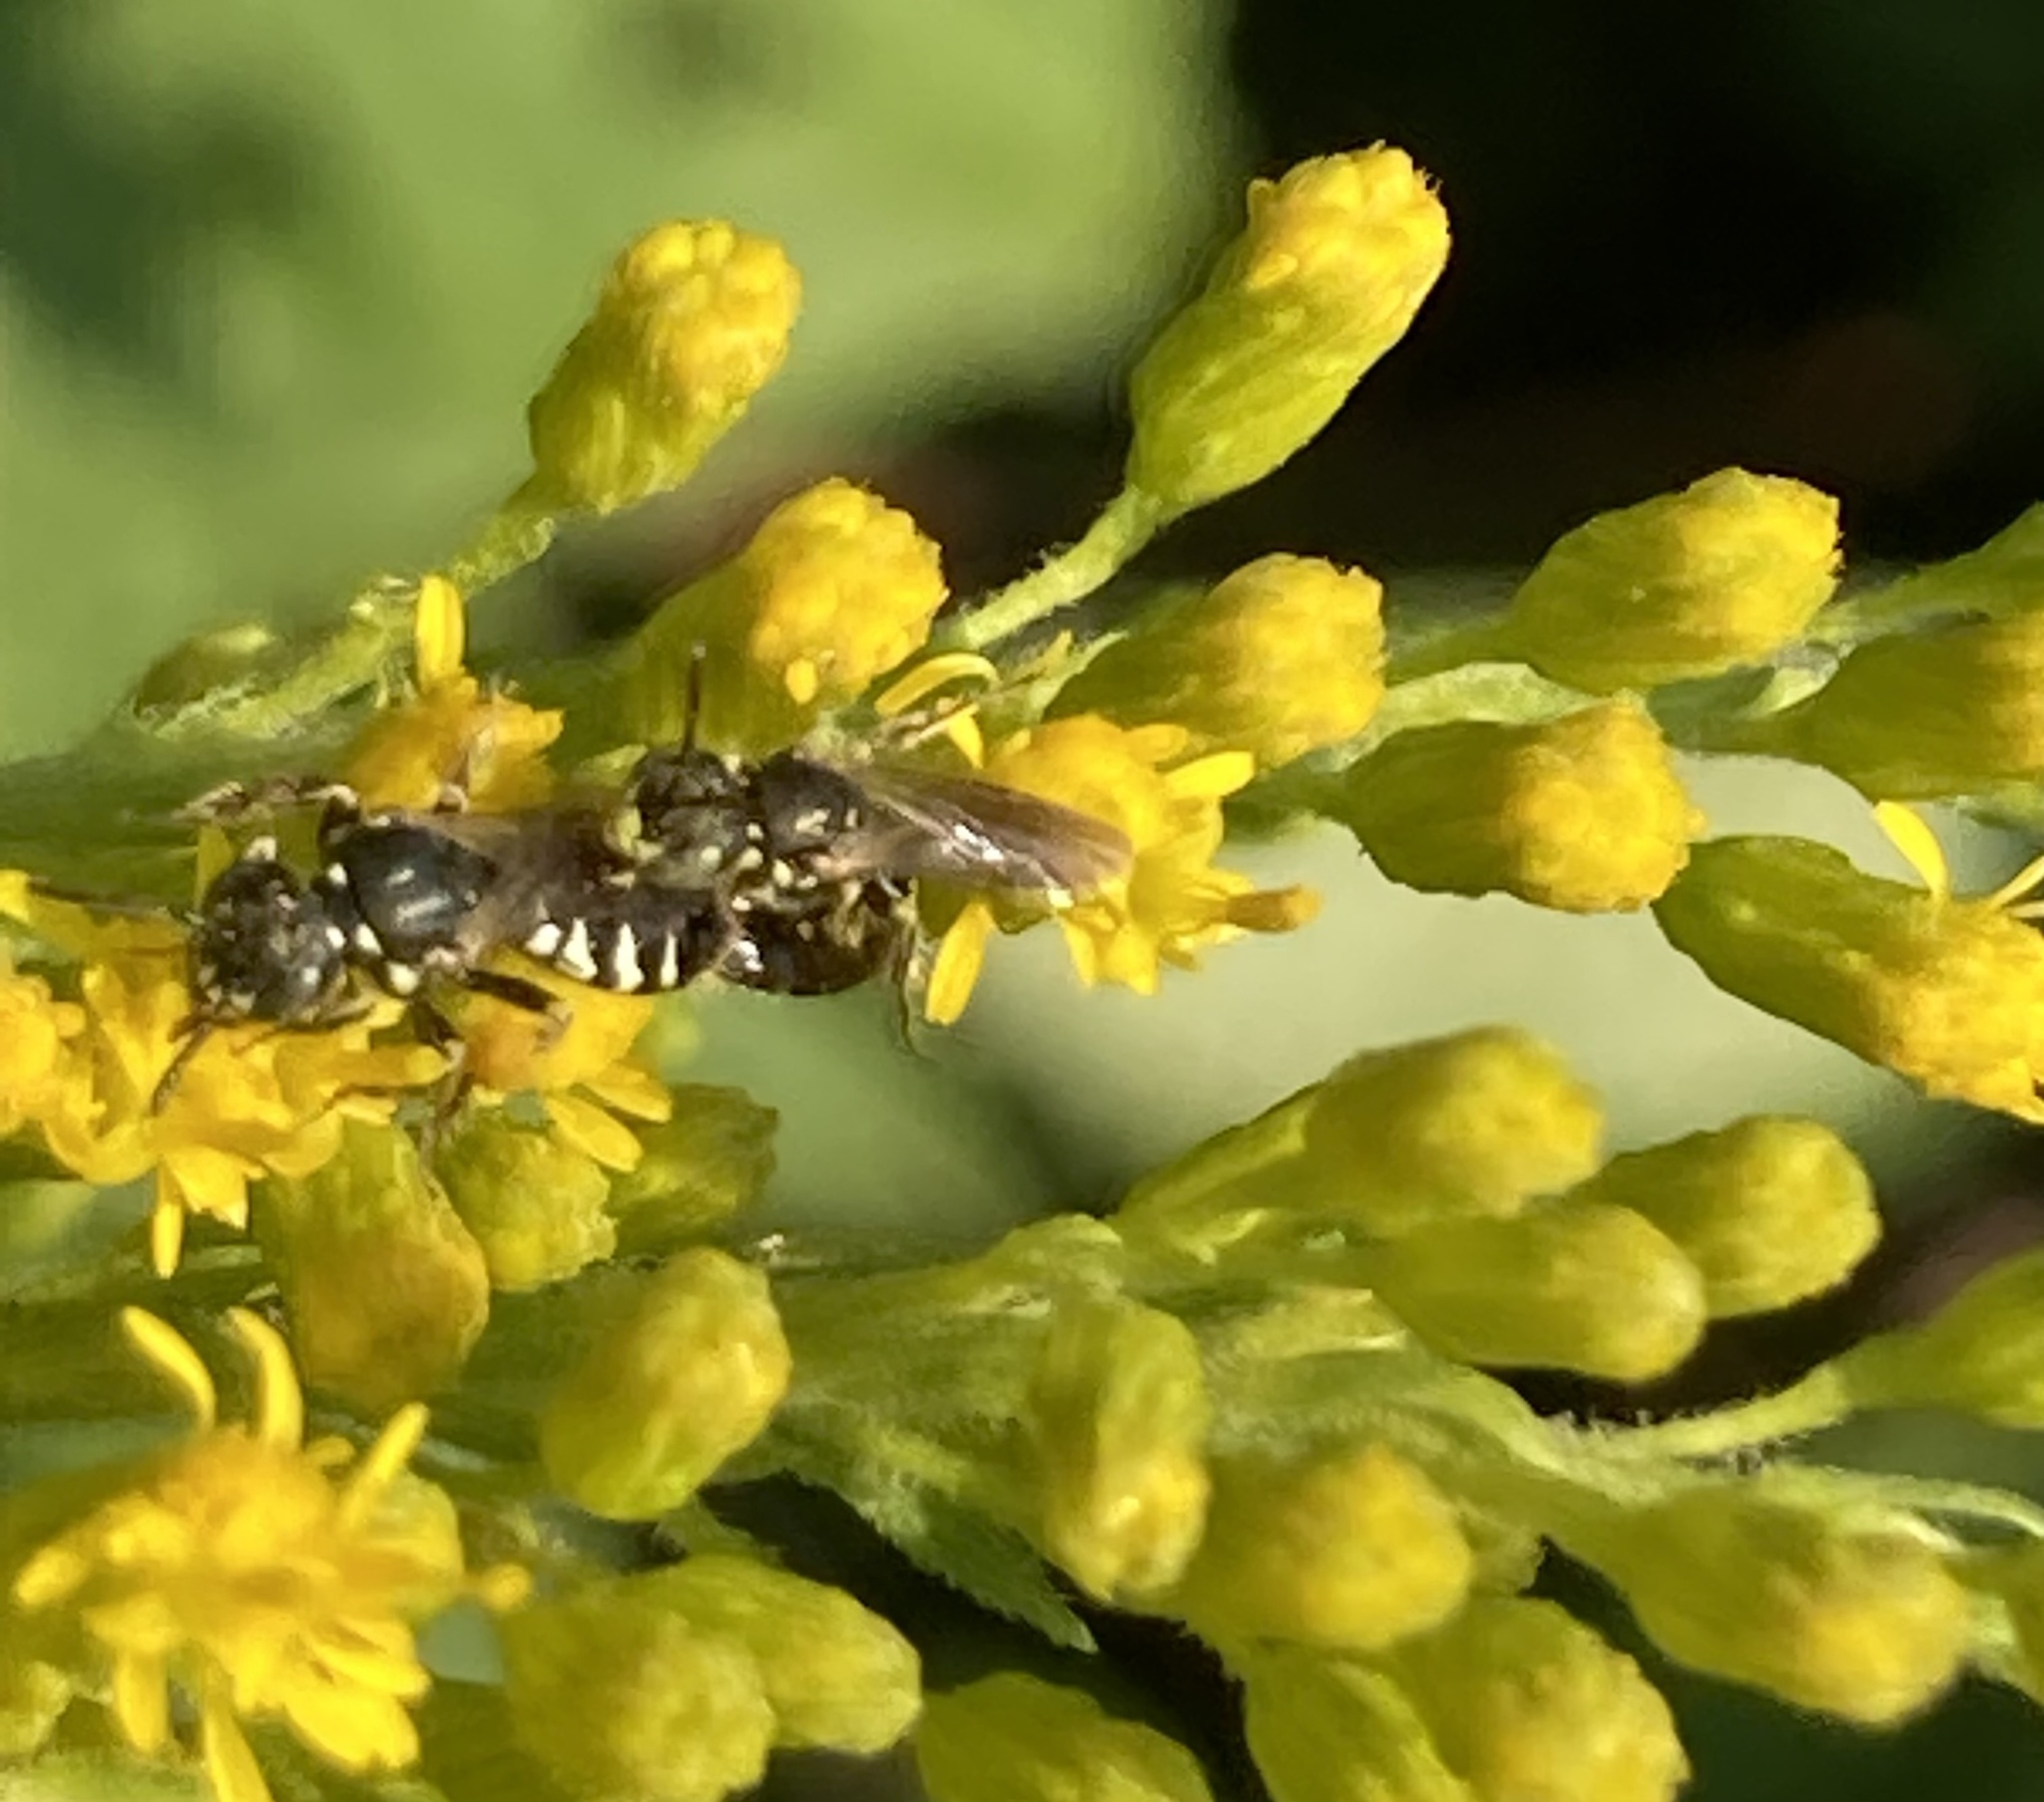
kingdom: Animalia
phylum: Arthropoda
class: Insecta
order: Hymenoptera
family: Andrenidae
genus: Perdita
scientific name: Perdita octomaculata
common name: Eight-spotted miner bee
